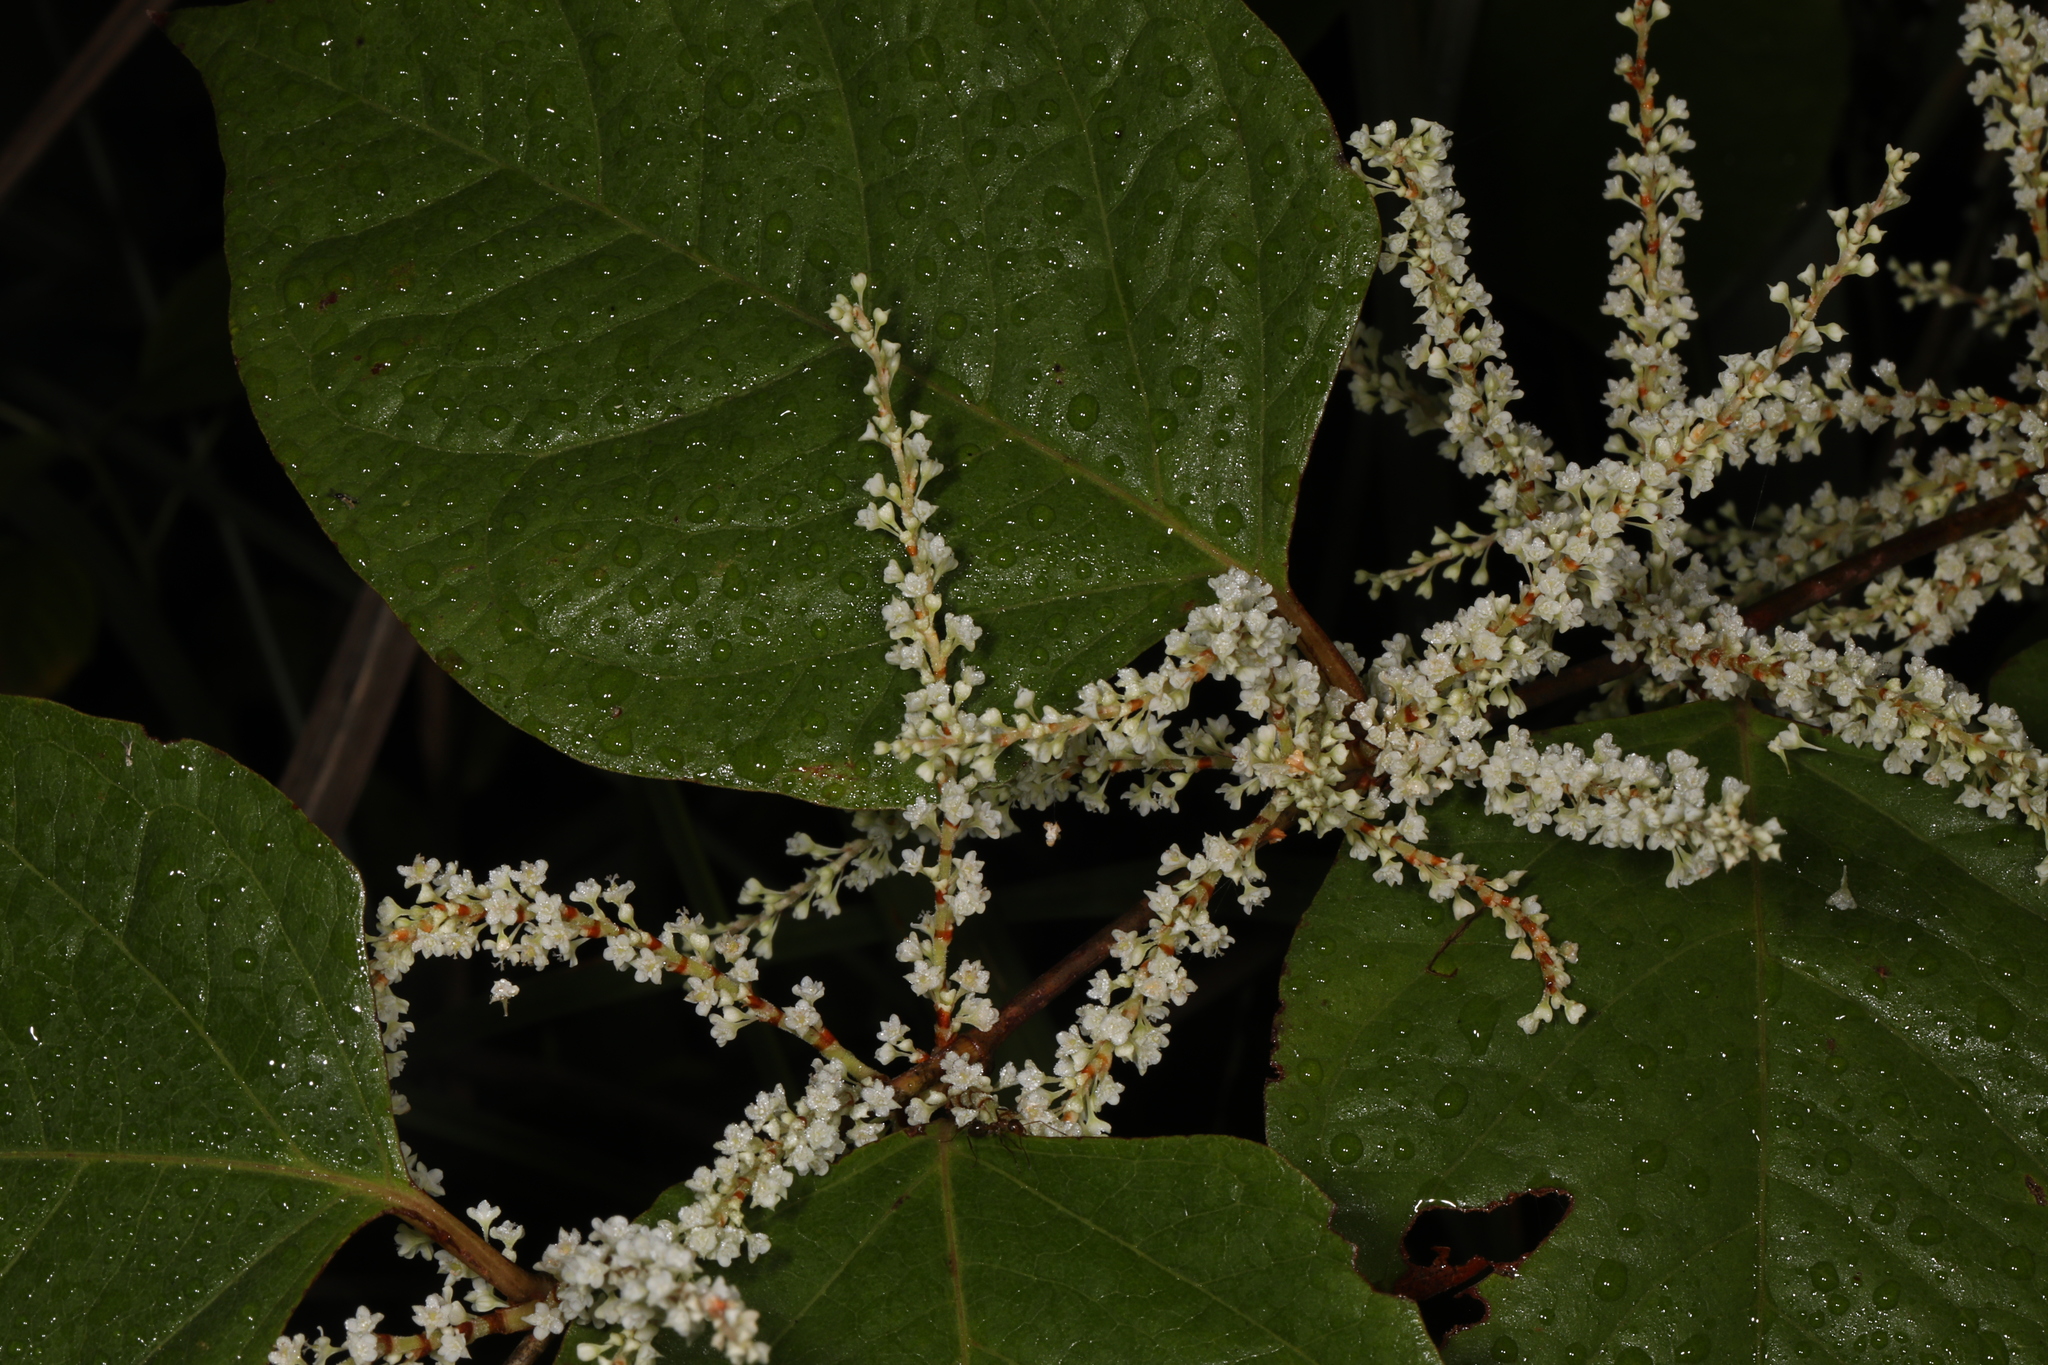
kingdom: Plantae
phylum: Tracheophyta
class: Magnoliopsida
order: Caryophyllales
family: Polygonaceae
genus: Reynoutria
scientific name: Reynoutria japonica
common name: Japanese knotweed
